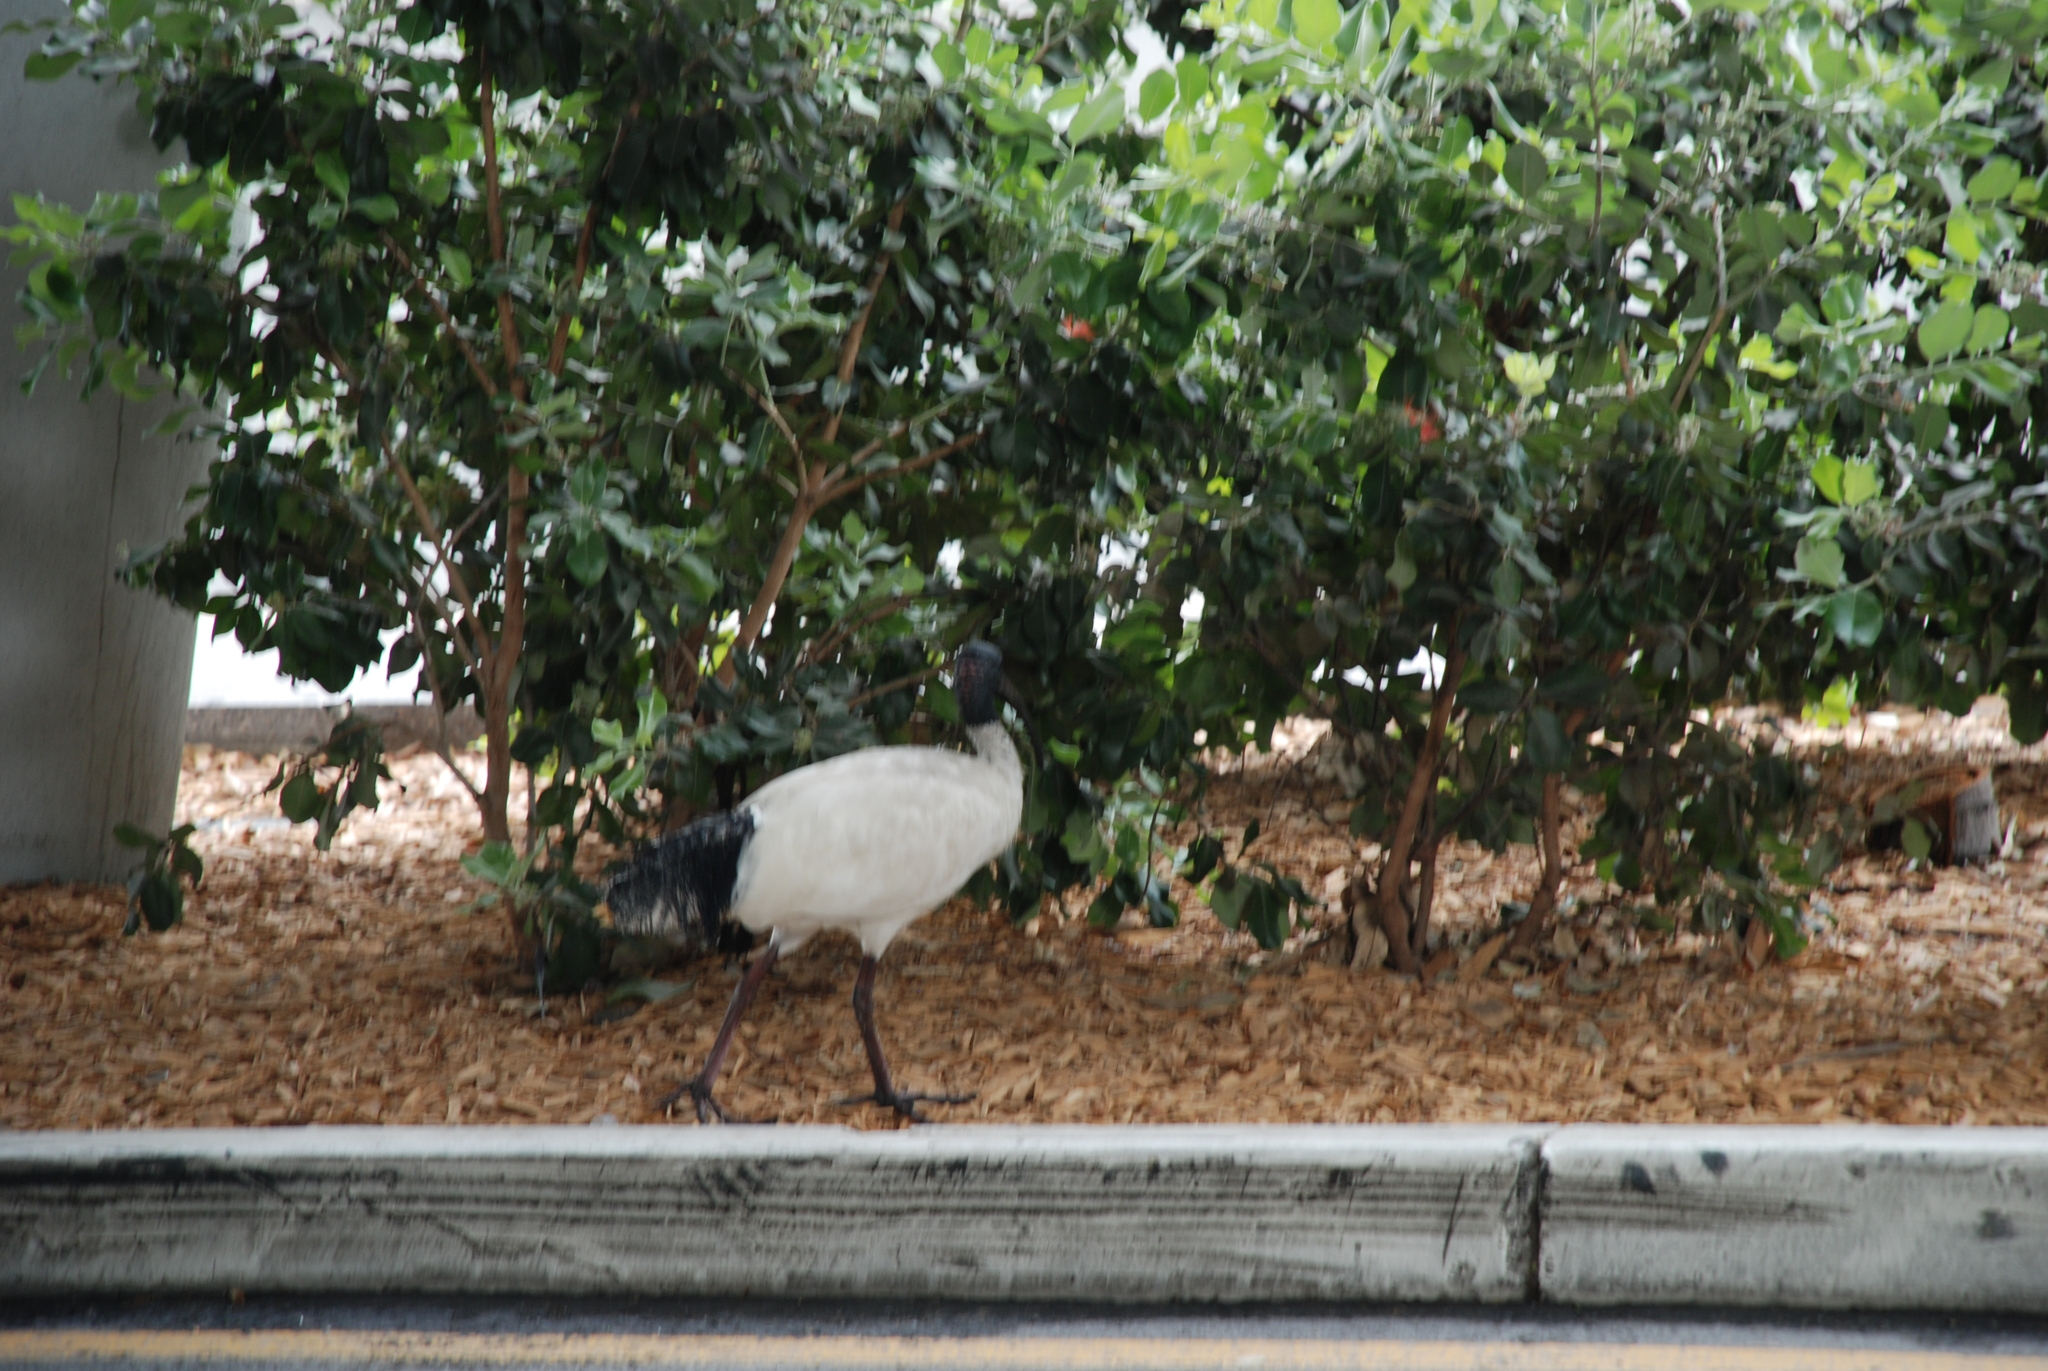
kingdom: Animalia
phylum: Chordata
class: Aves
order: Pelecaniformes
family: Threskiornithidae
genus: Threskiornis
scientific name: Threskiornis molucca
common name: Australian white ibis
